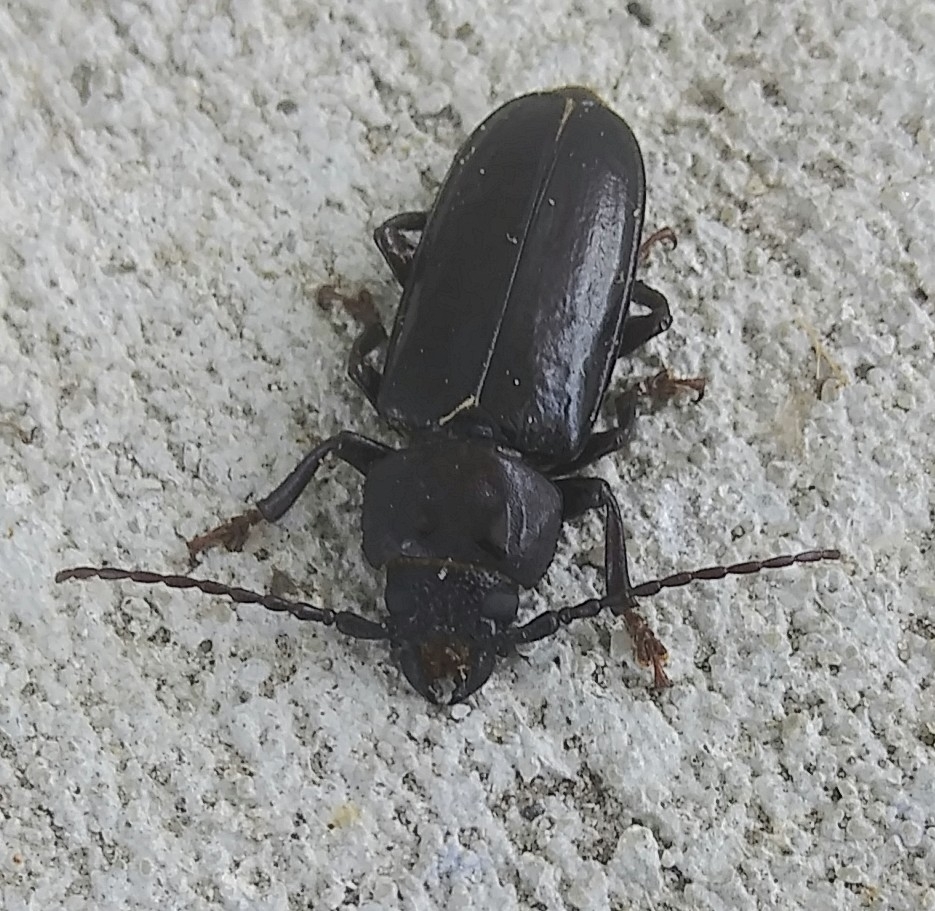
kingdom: Animalia
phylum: Arthropoda
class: Insecta
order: Coleoptera
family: Cerambycidae
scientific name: Cerambycidae
